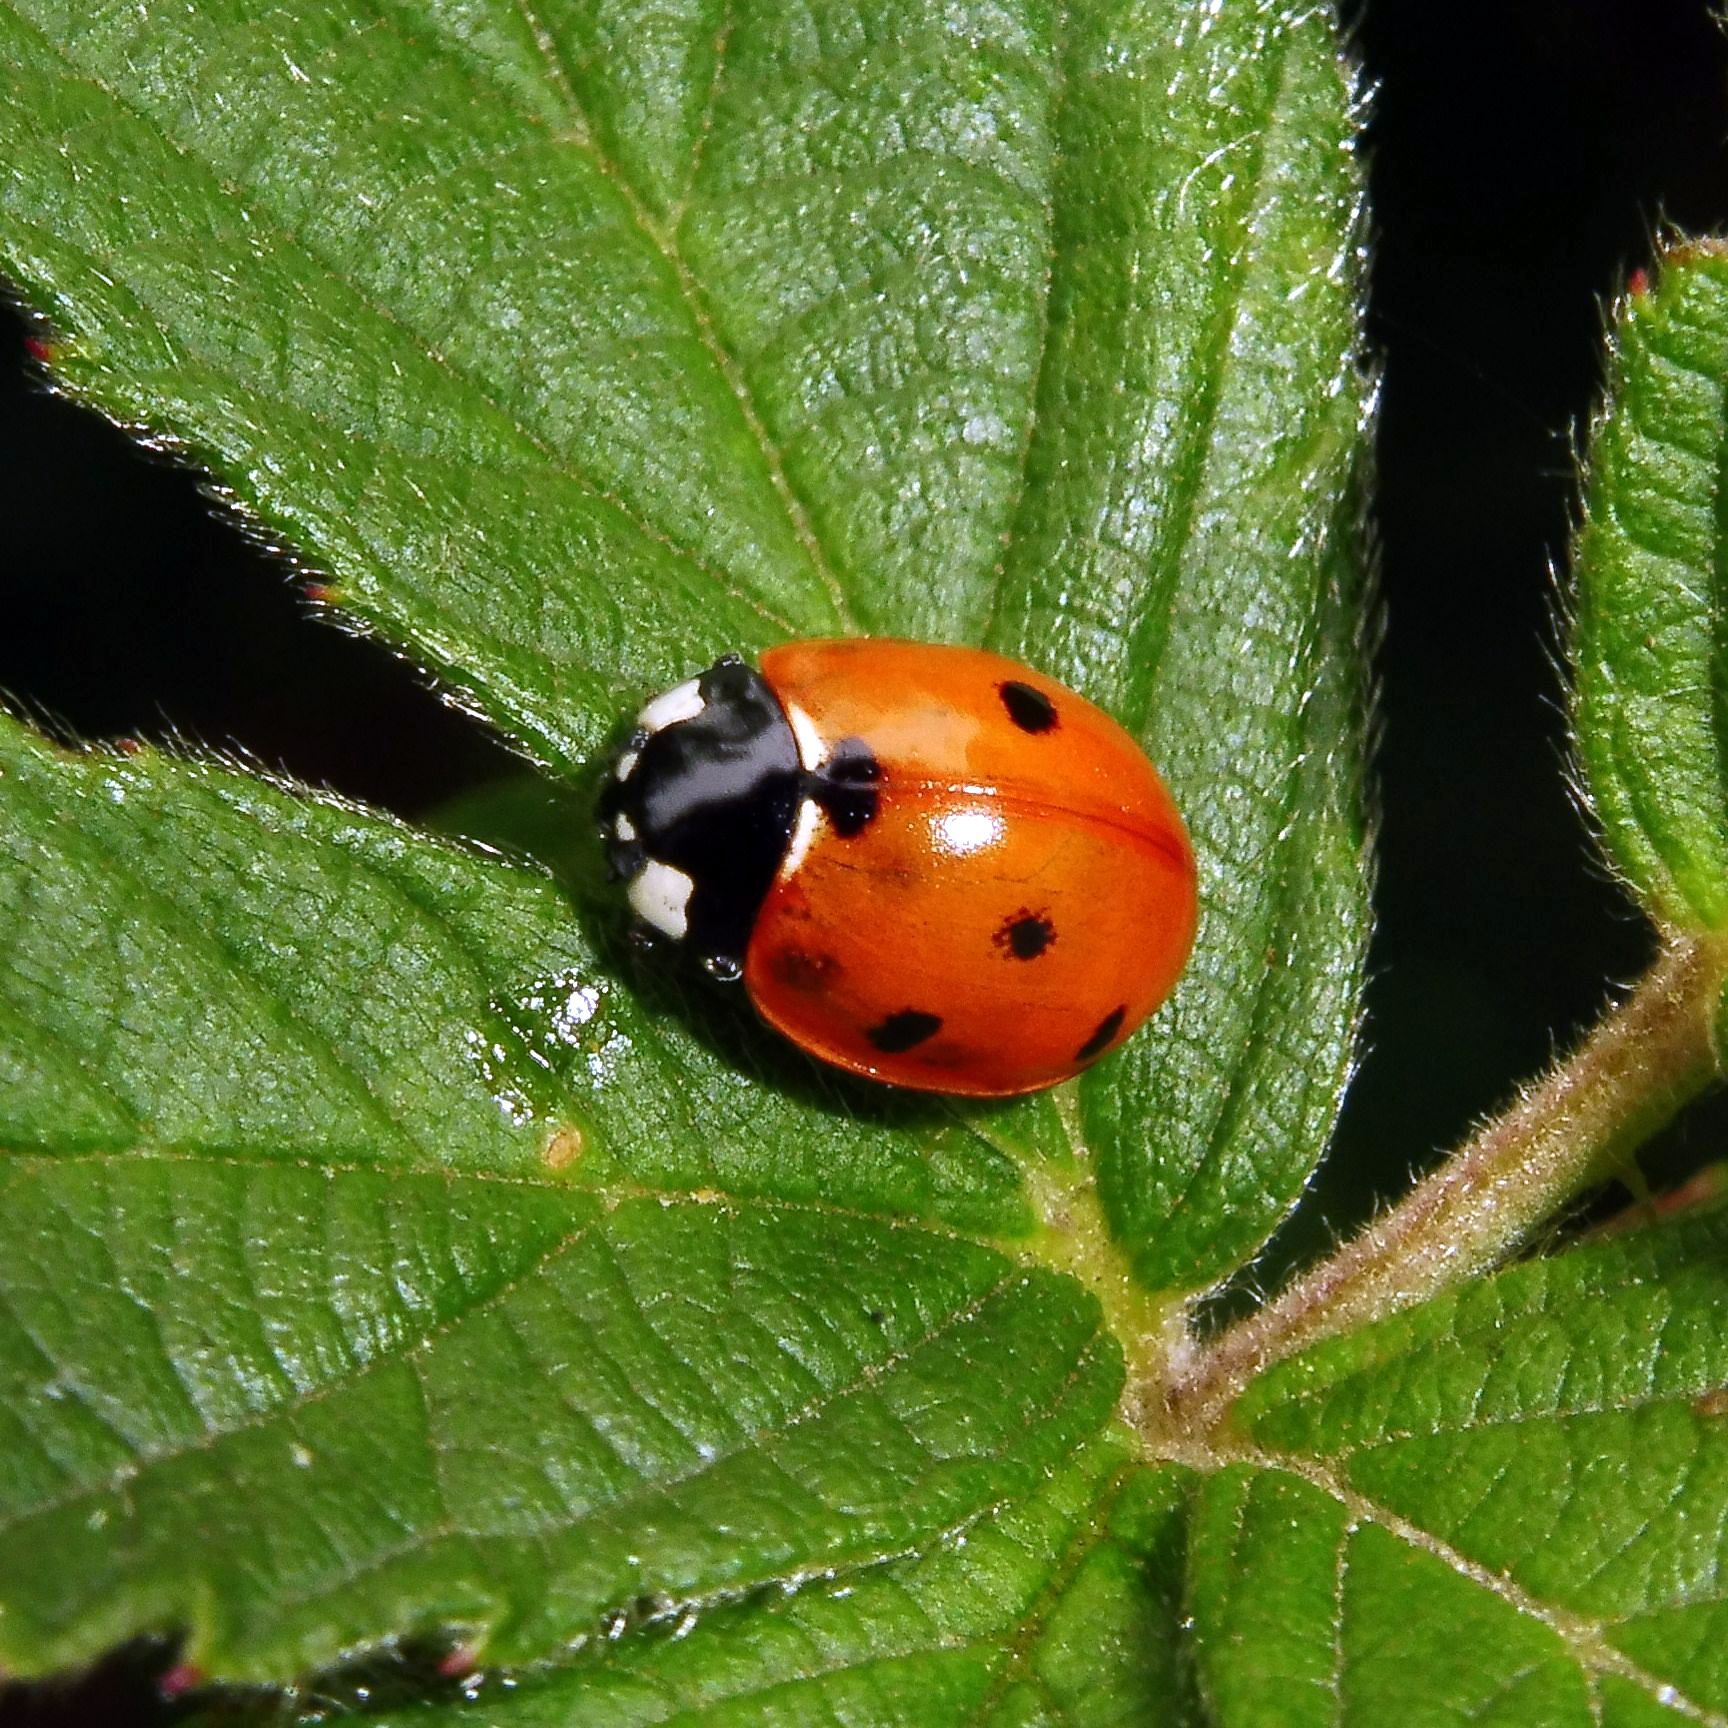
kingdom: Animalia
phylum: Arthropoda
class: Insecta
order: Coleoptera
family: Coccinellidae
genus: Coccinella
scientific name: Coccinella septempunctata
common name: Sevenspotted lady beetle
